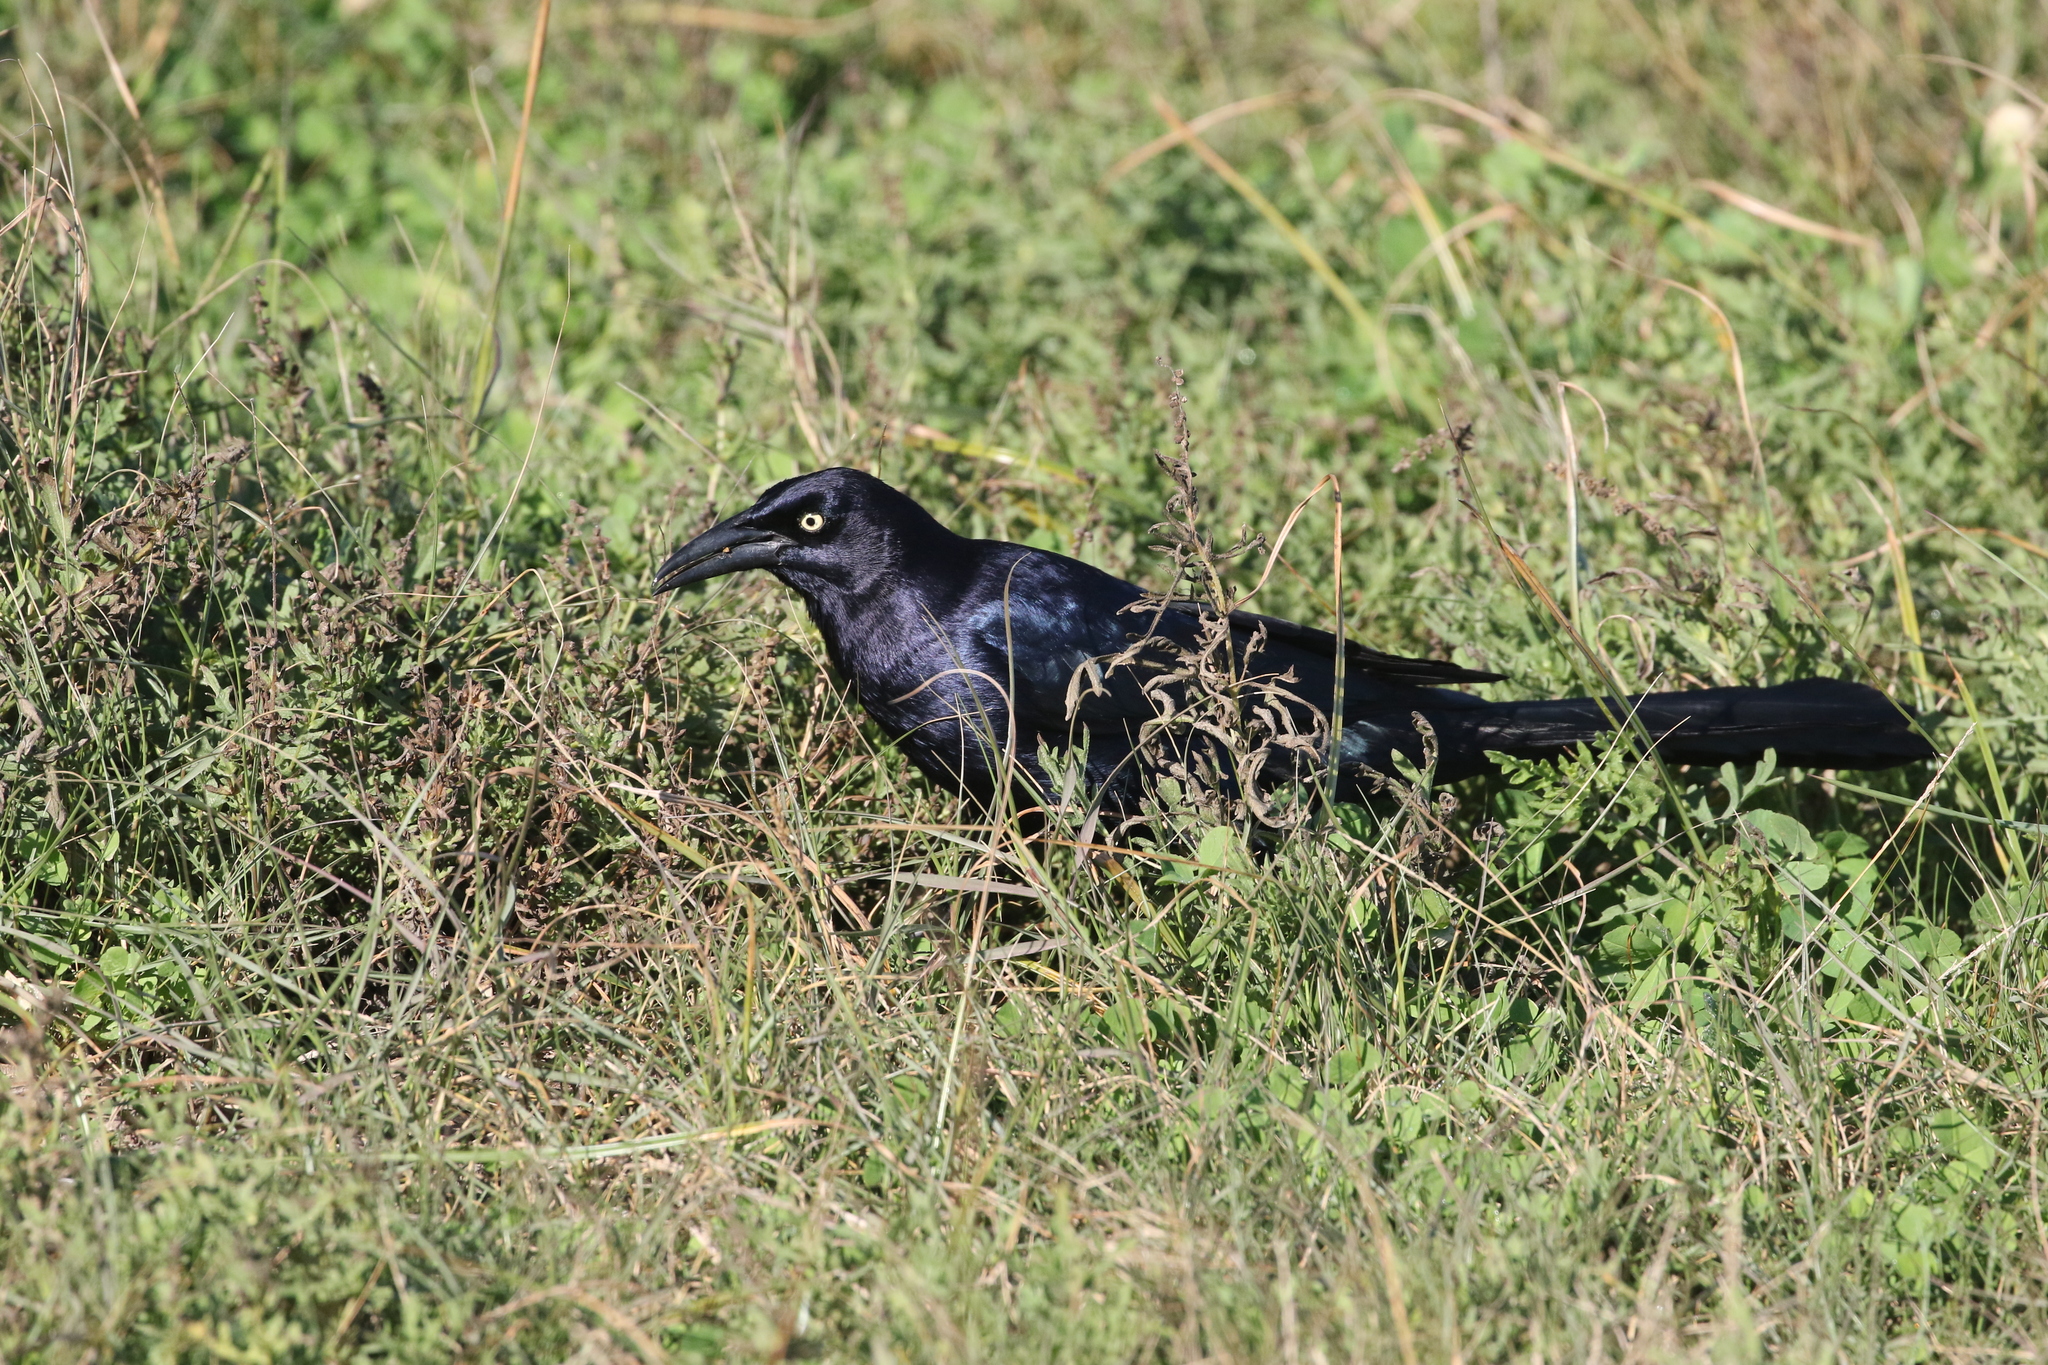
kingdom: Animalia
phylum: Chordata
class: Aves
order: Passeriformes
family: Icteridae
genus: Quiscalus
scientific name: Quiscalus mexicanus
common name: Great-tailed grackle
